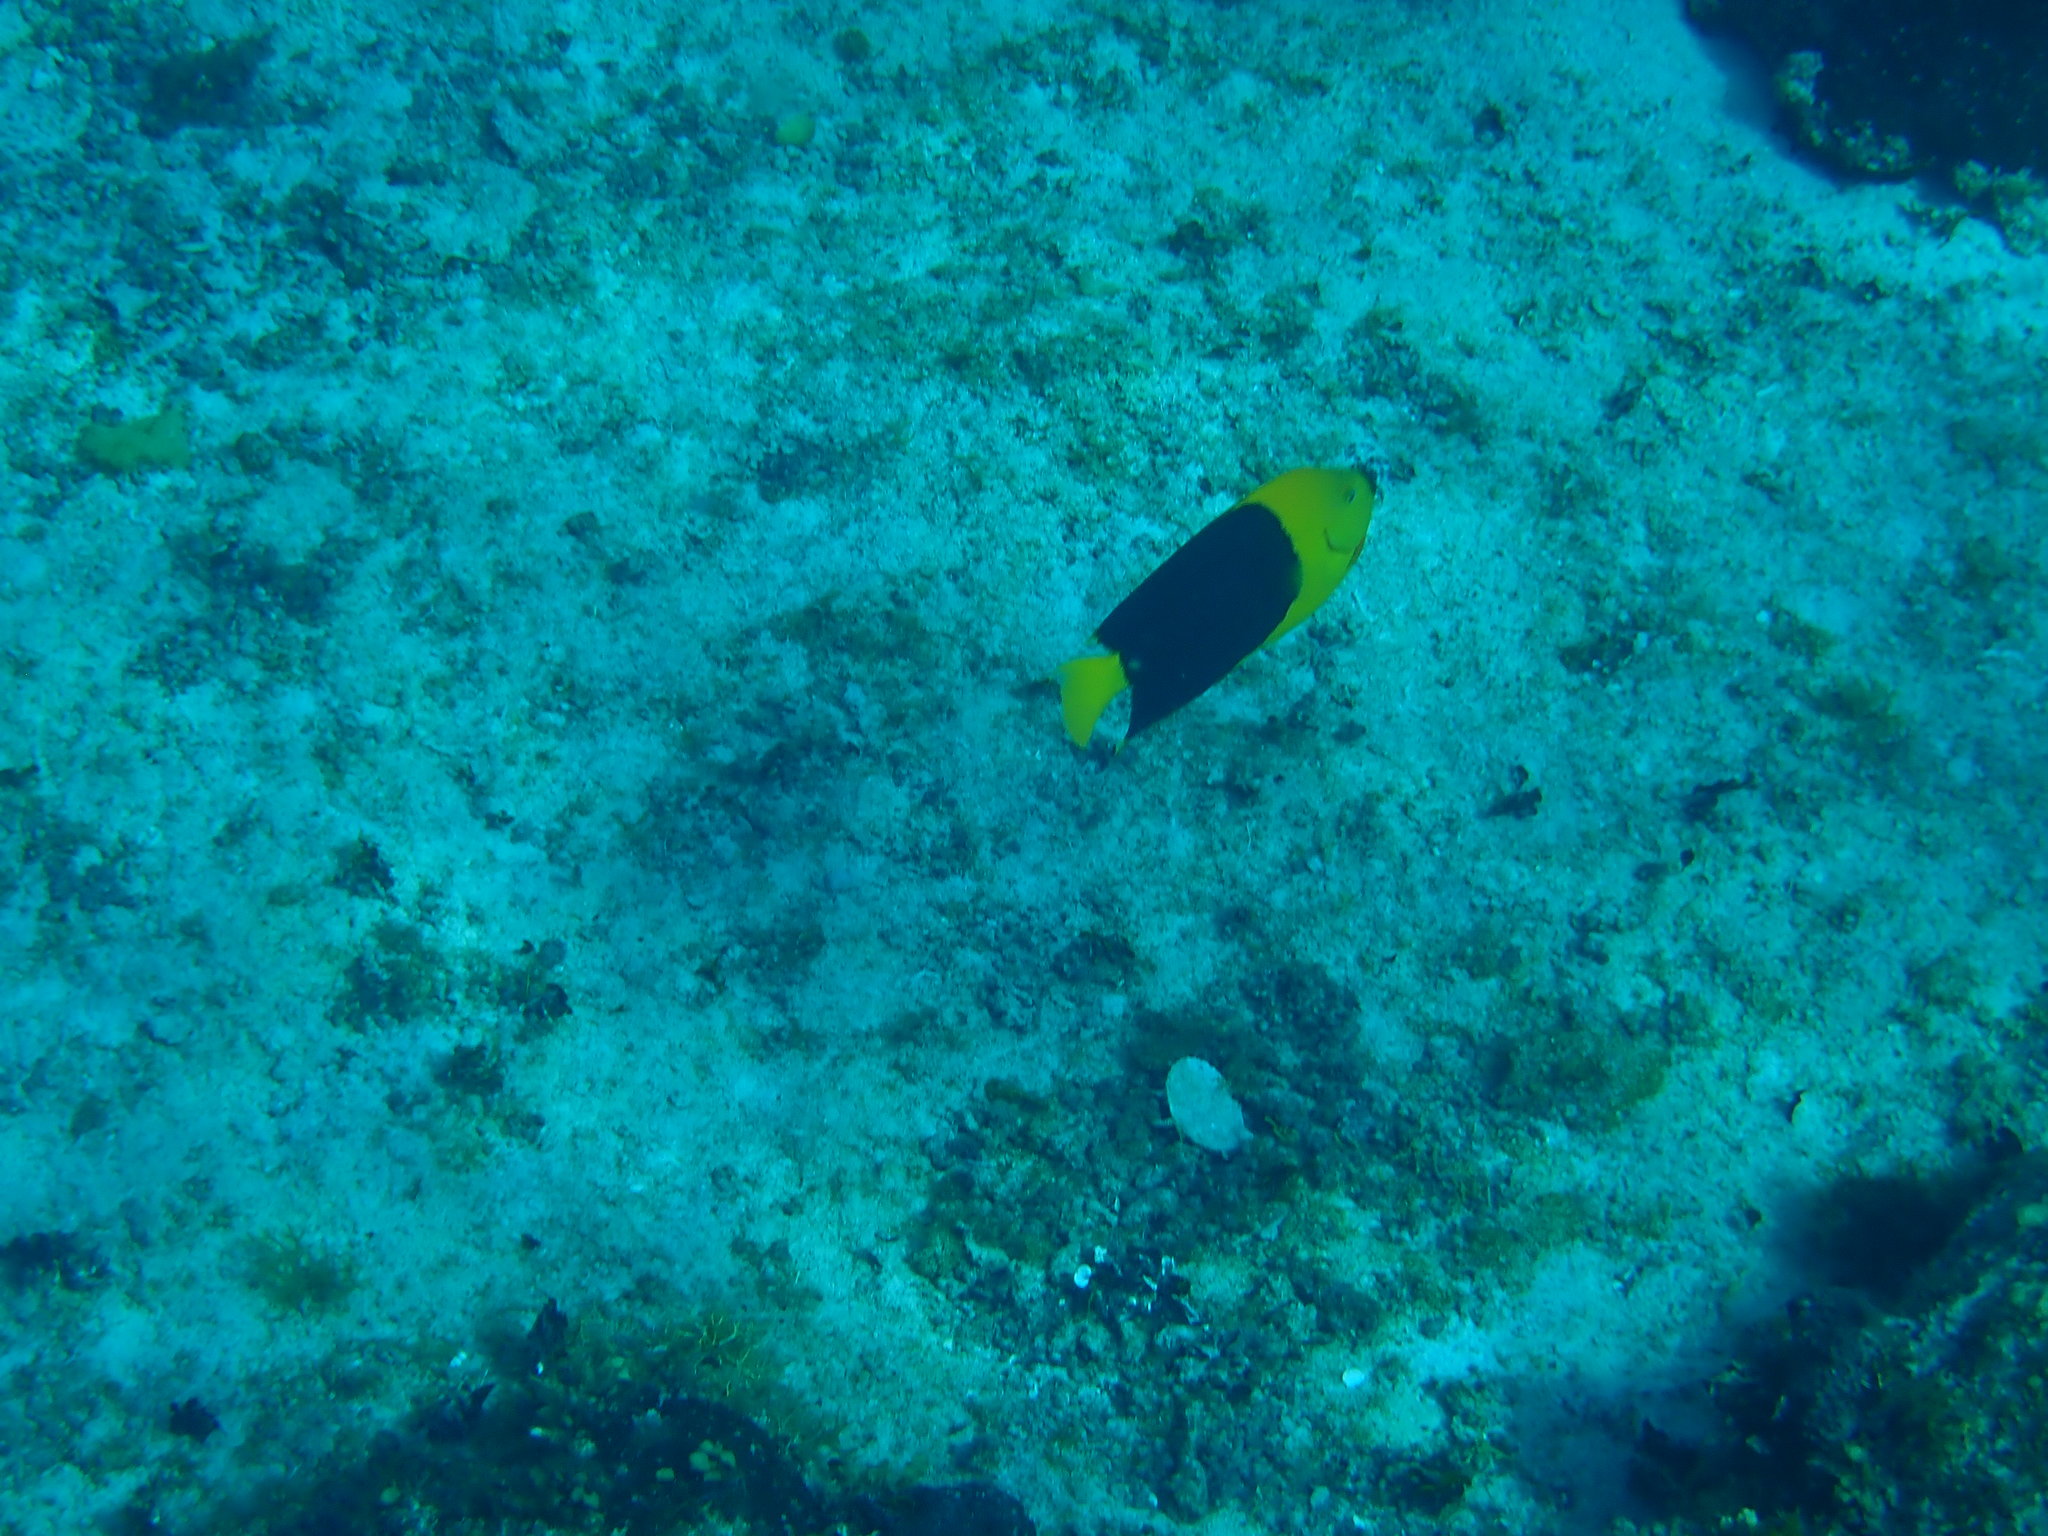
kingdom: Animalia
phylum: Chordata
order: Perciformes
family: Pomacanthidae
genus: Holacanthus
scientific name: Holacanthus tricolor
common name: Rock beauty
